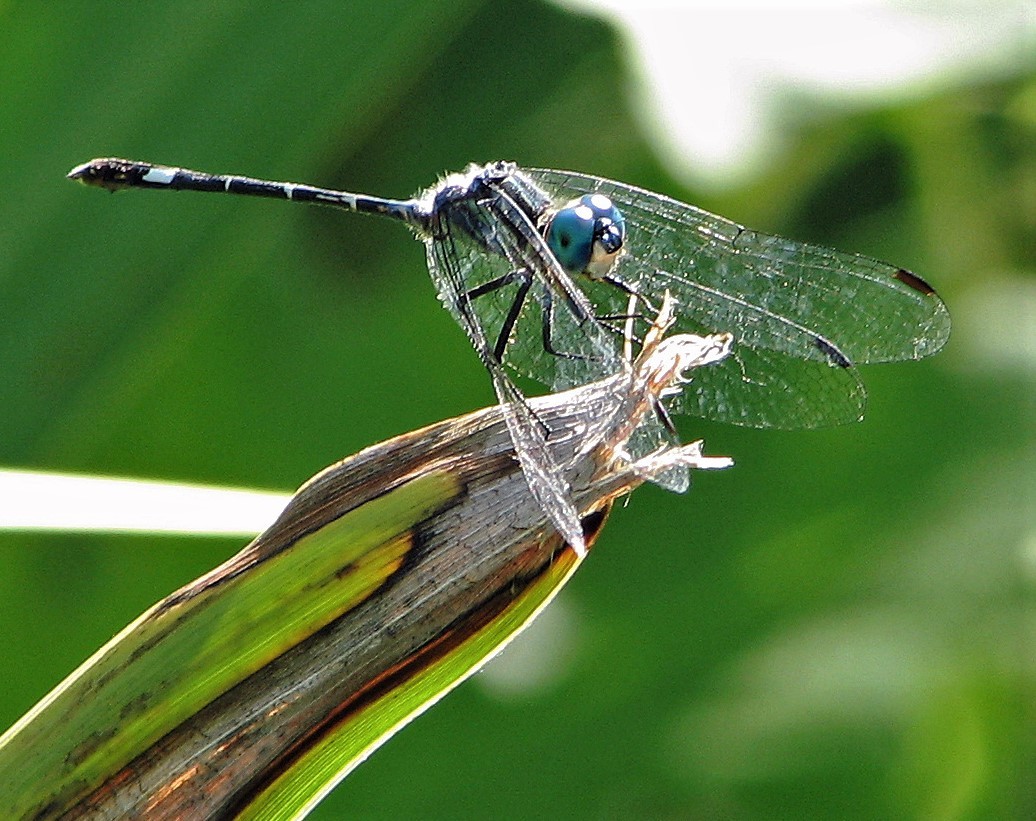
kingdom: Animalia
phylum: Arthropoda
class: Insecta
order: Odonata
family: Libellulidae
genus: Micrathyria
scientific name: Micrathyria hypodidyma
